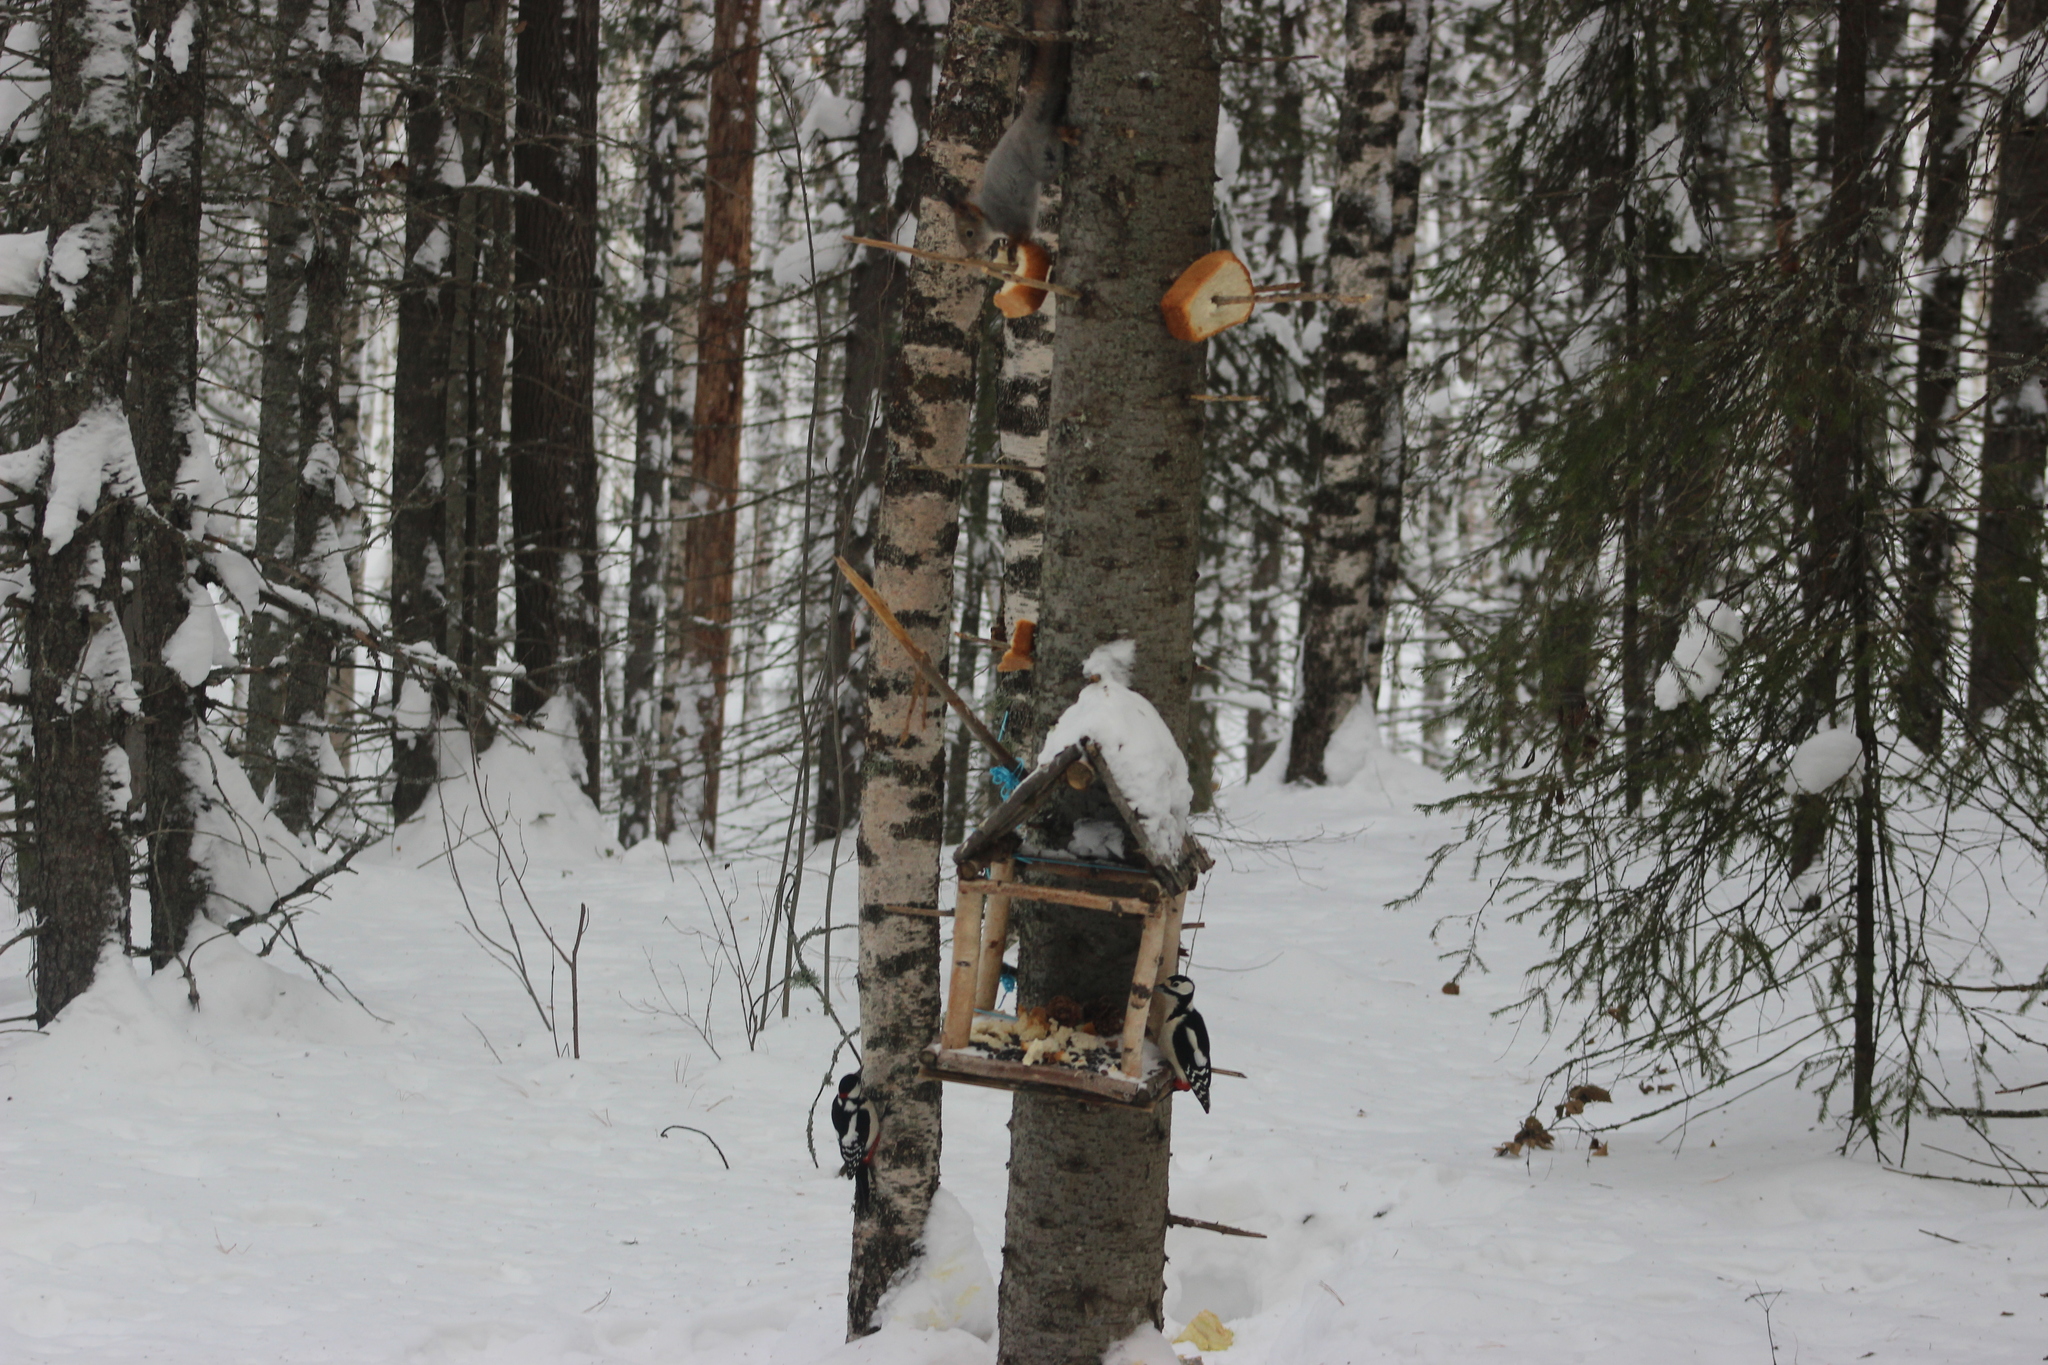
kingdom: Animalia
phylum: Chordata
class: Mammalia
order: Rodentia
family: Sciuridae
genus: Sciurus
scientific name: Sciurus vulgaris
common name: Eurasian red squirrel
